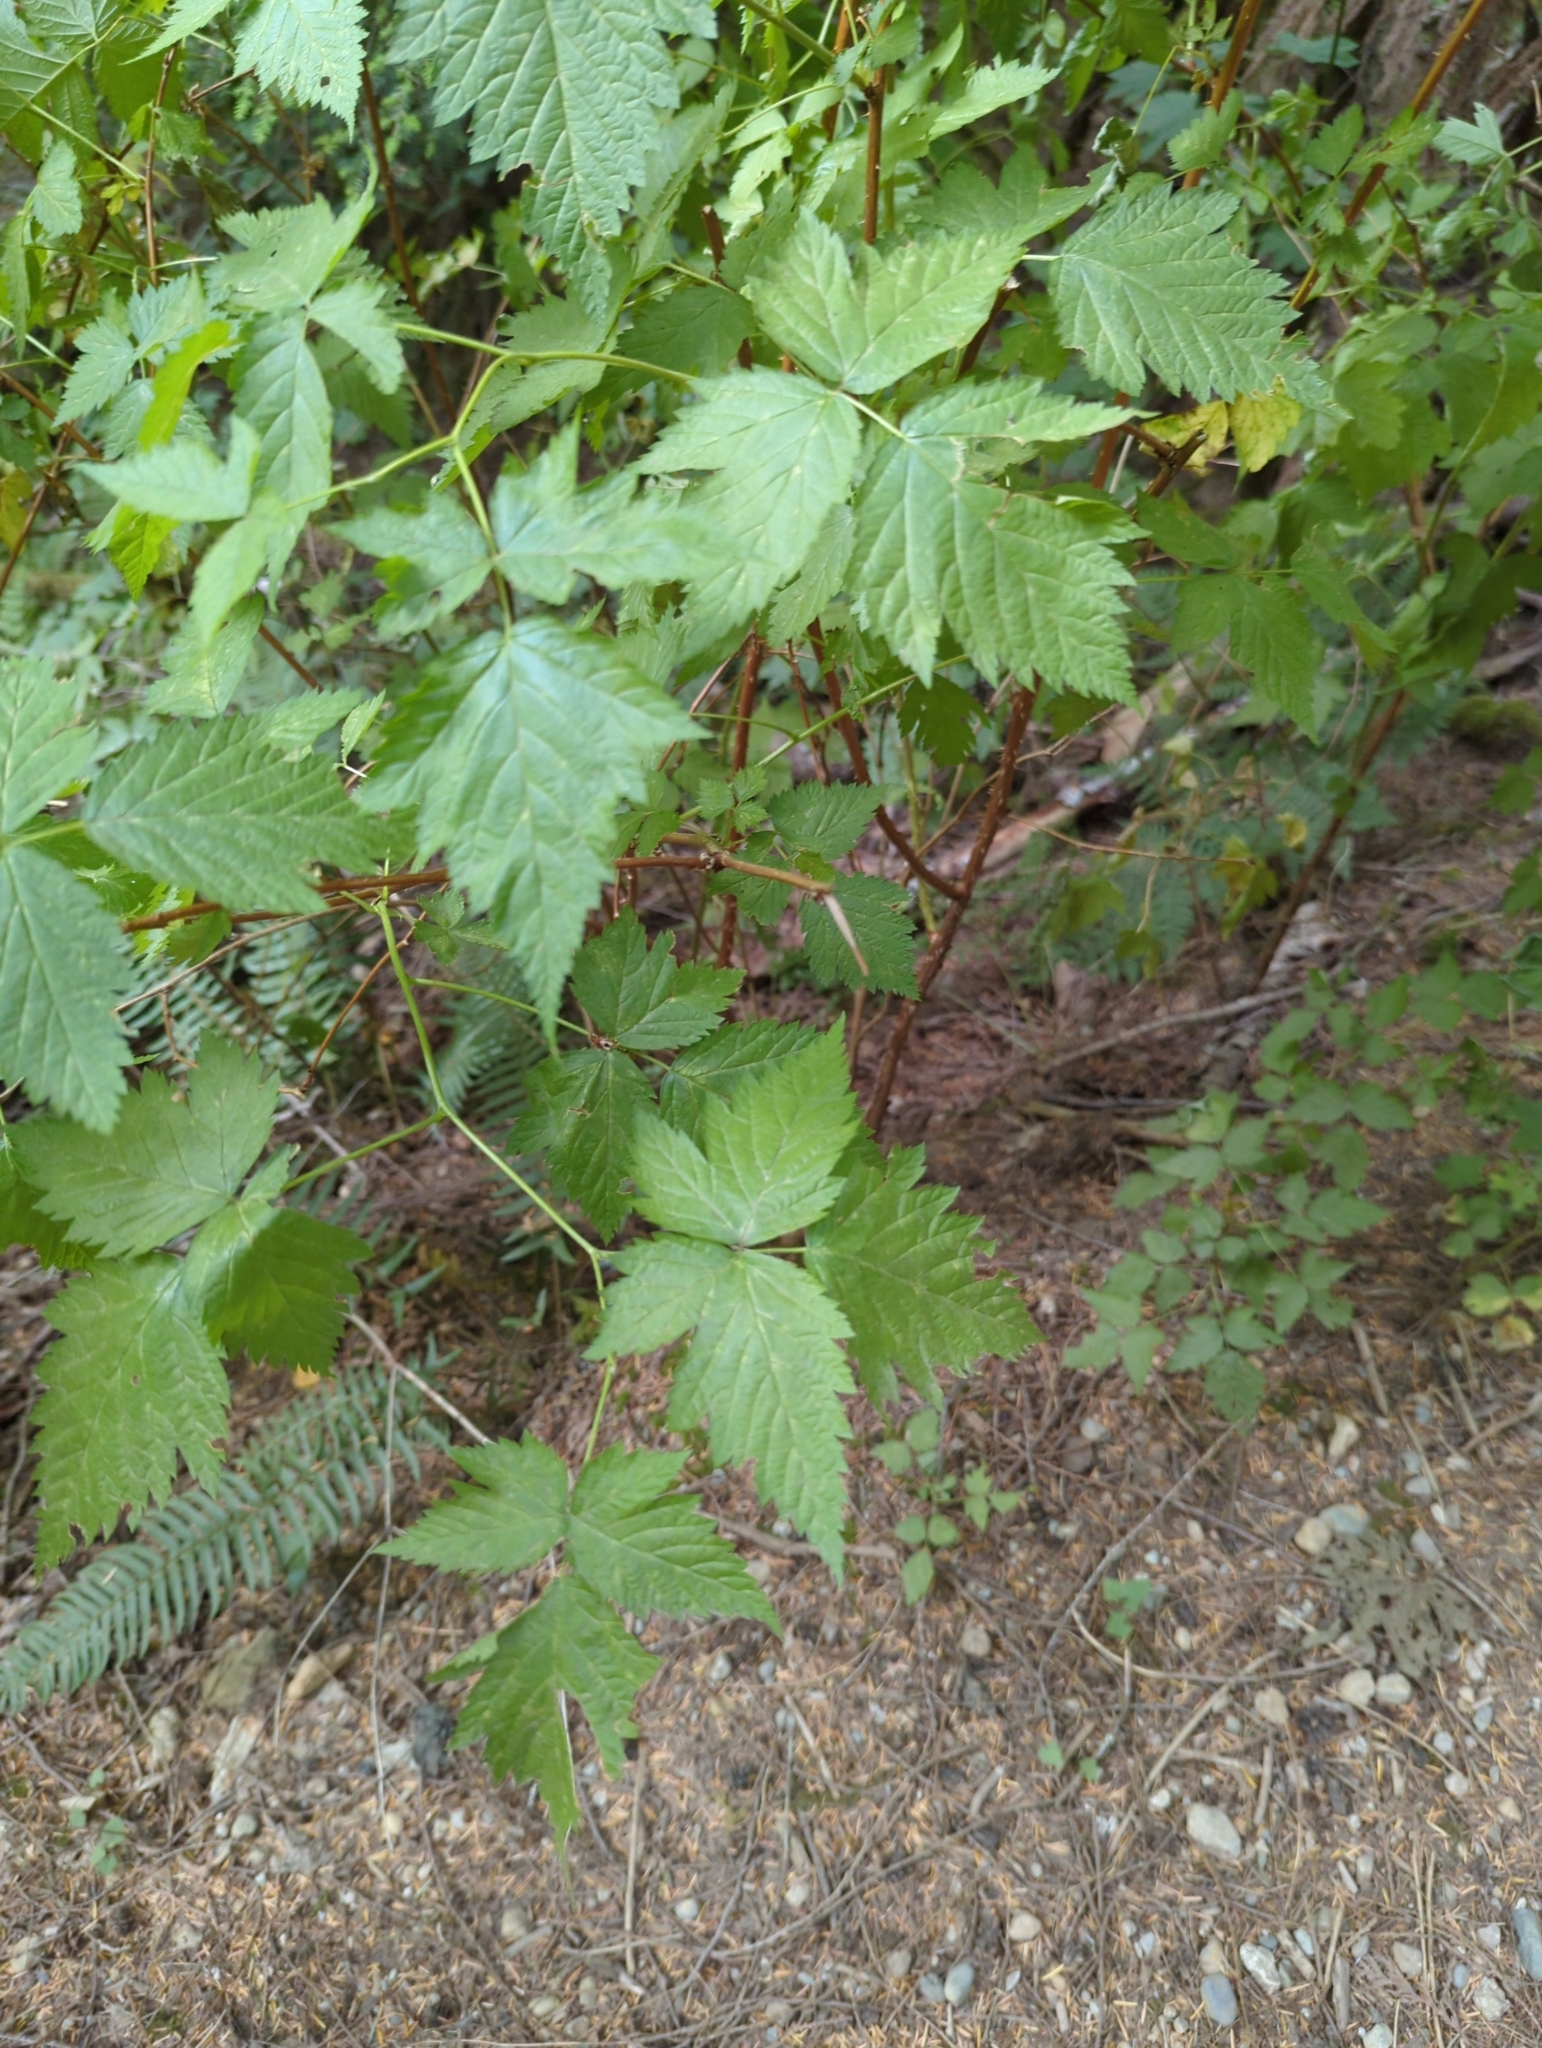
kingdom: Plantae
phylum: Tracheophyta
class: Magnoliopsida
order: Rosales
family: Rosaceae
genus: Rubus
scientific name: Rubus spectabilis
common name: Salmonberry
